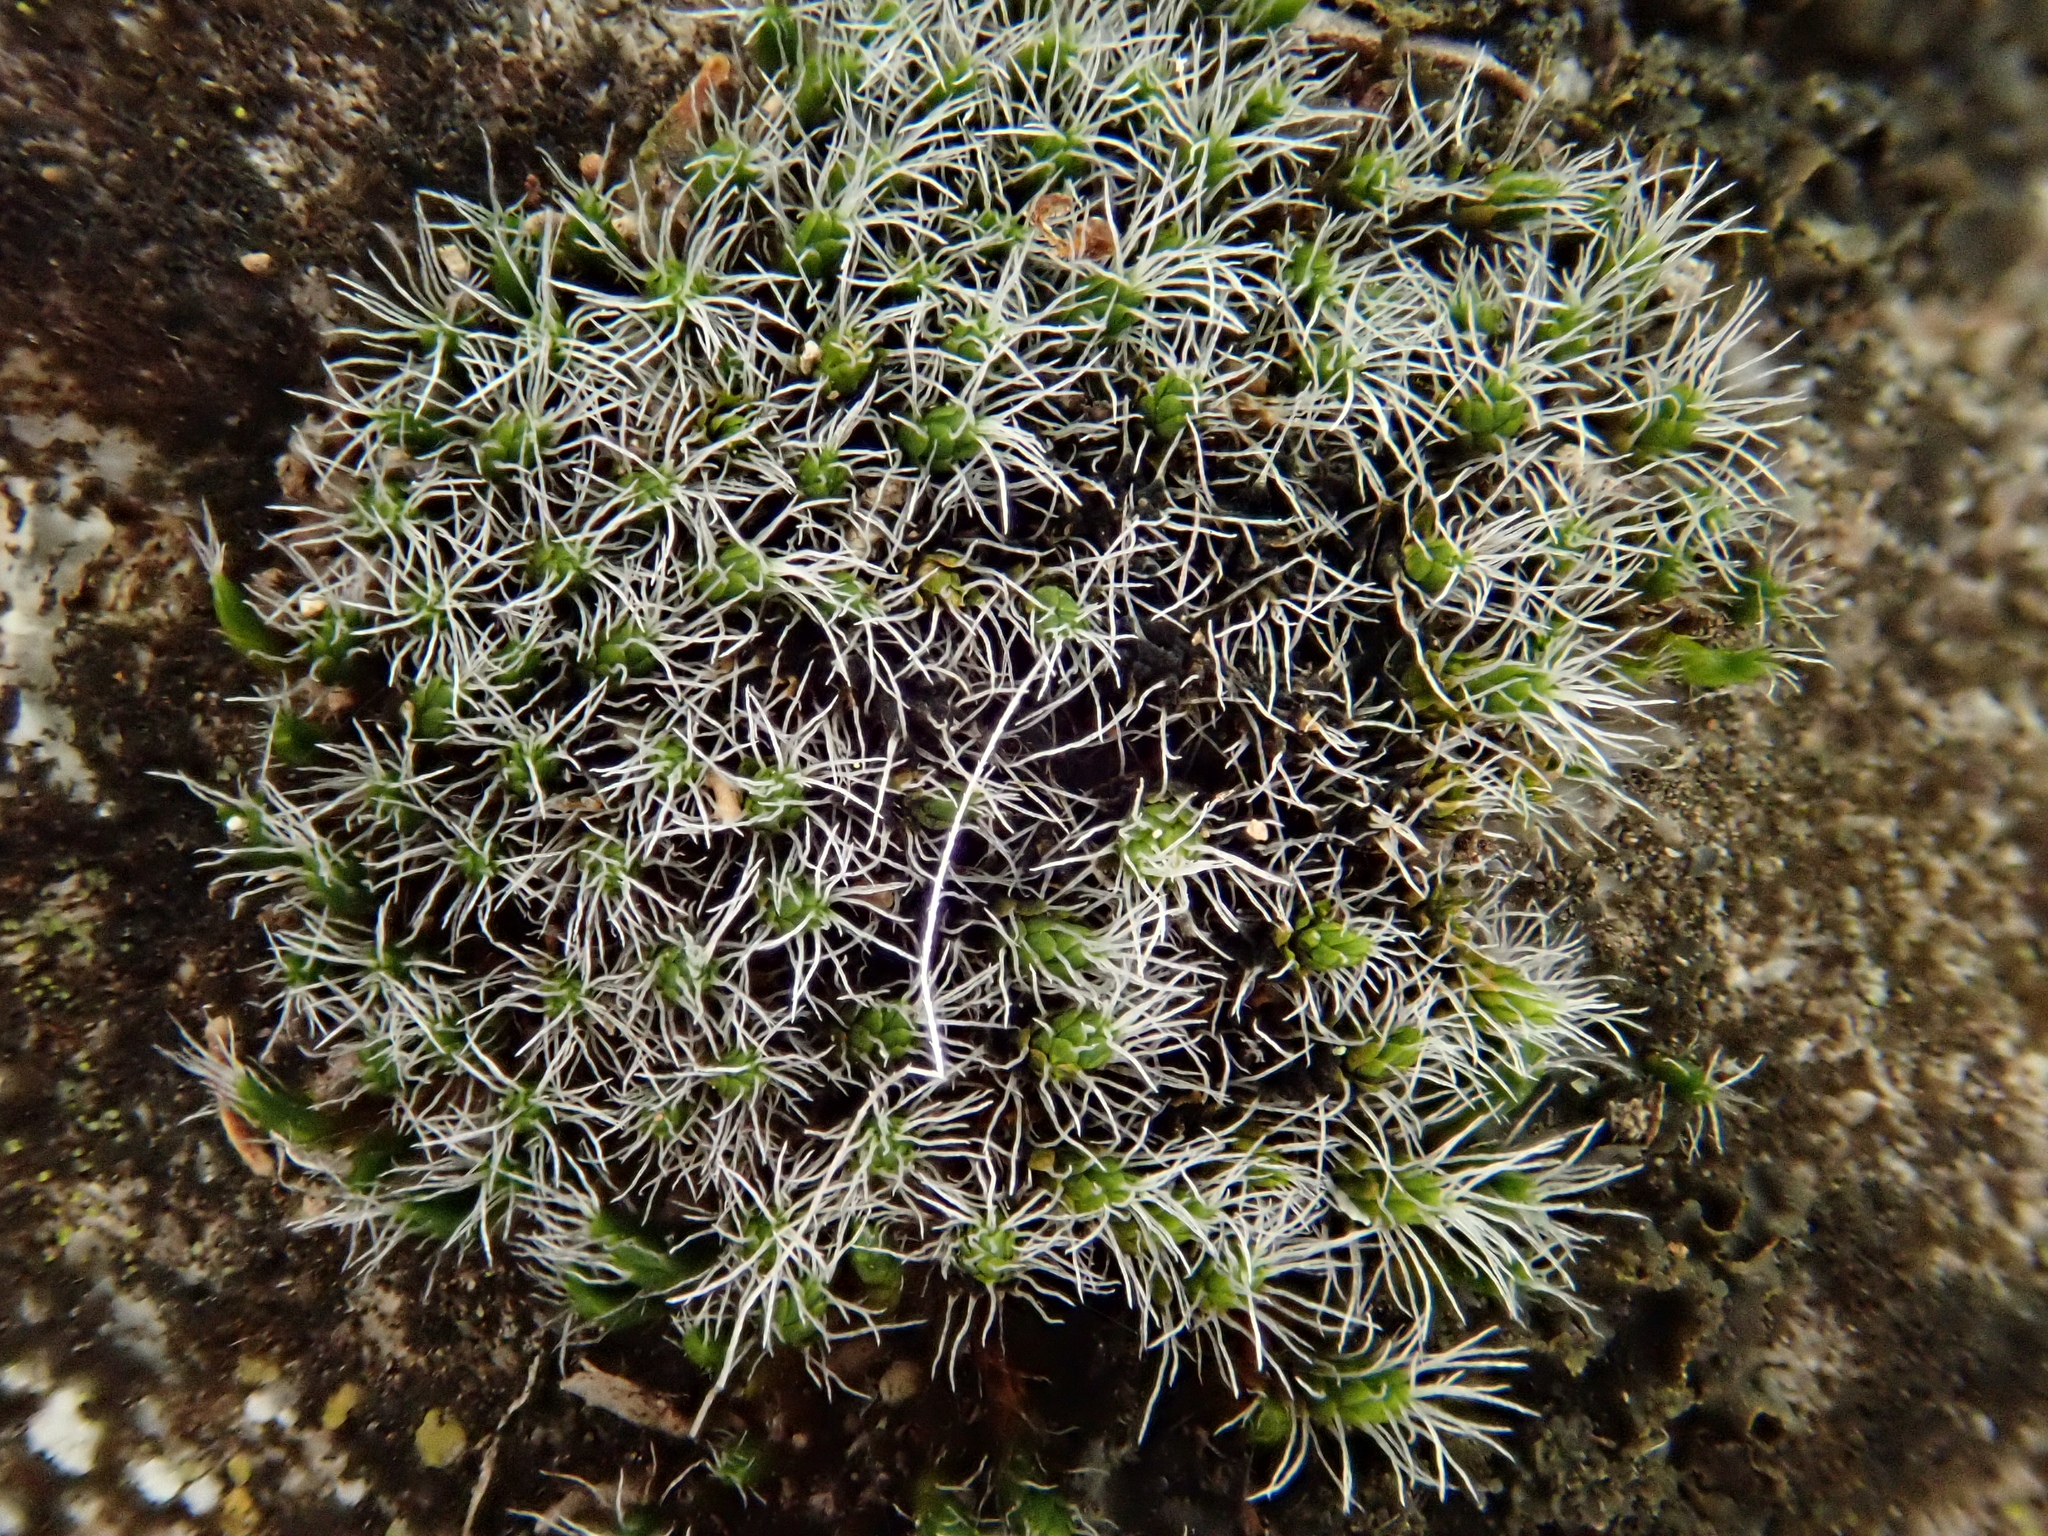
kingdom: Plantae
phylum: Bryophyta
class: Bryopsida
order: Grimmiales
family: Grimmiaceae
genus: Grimmia
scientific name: Grimmia laevigata
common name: Hoary grimmia
